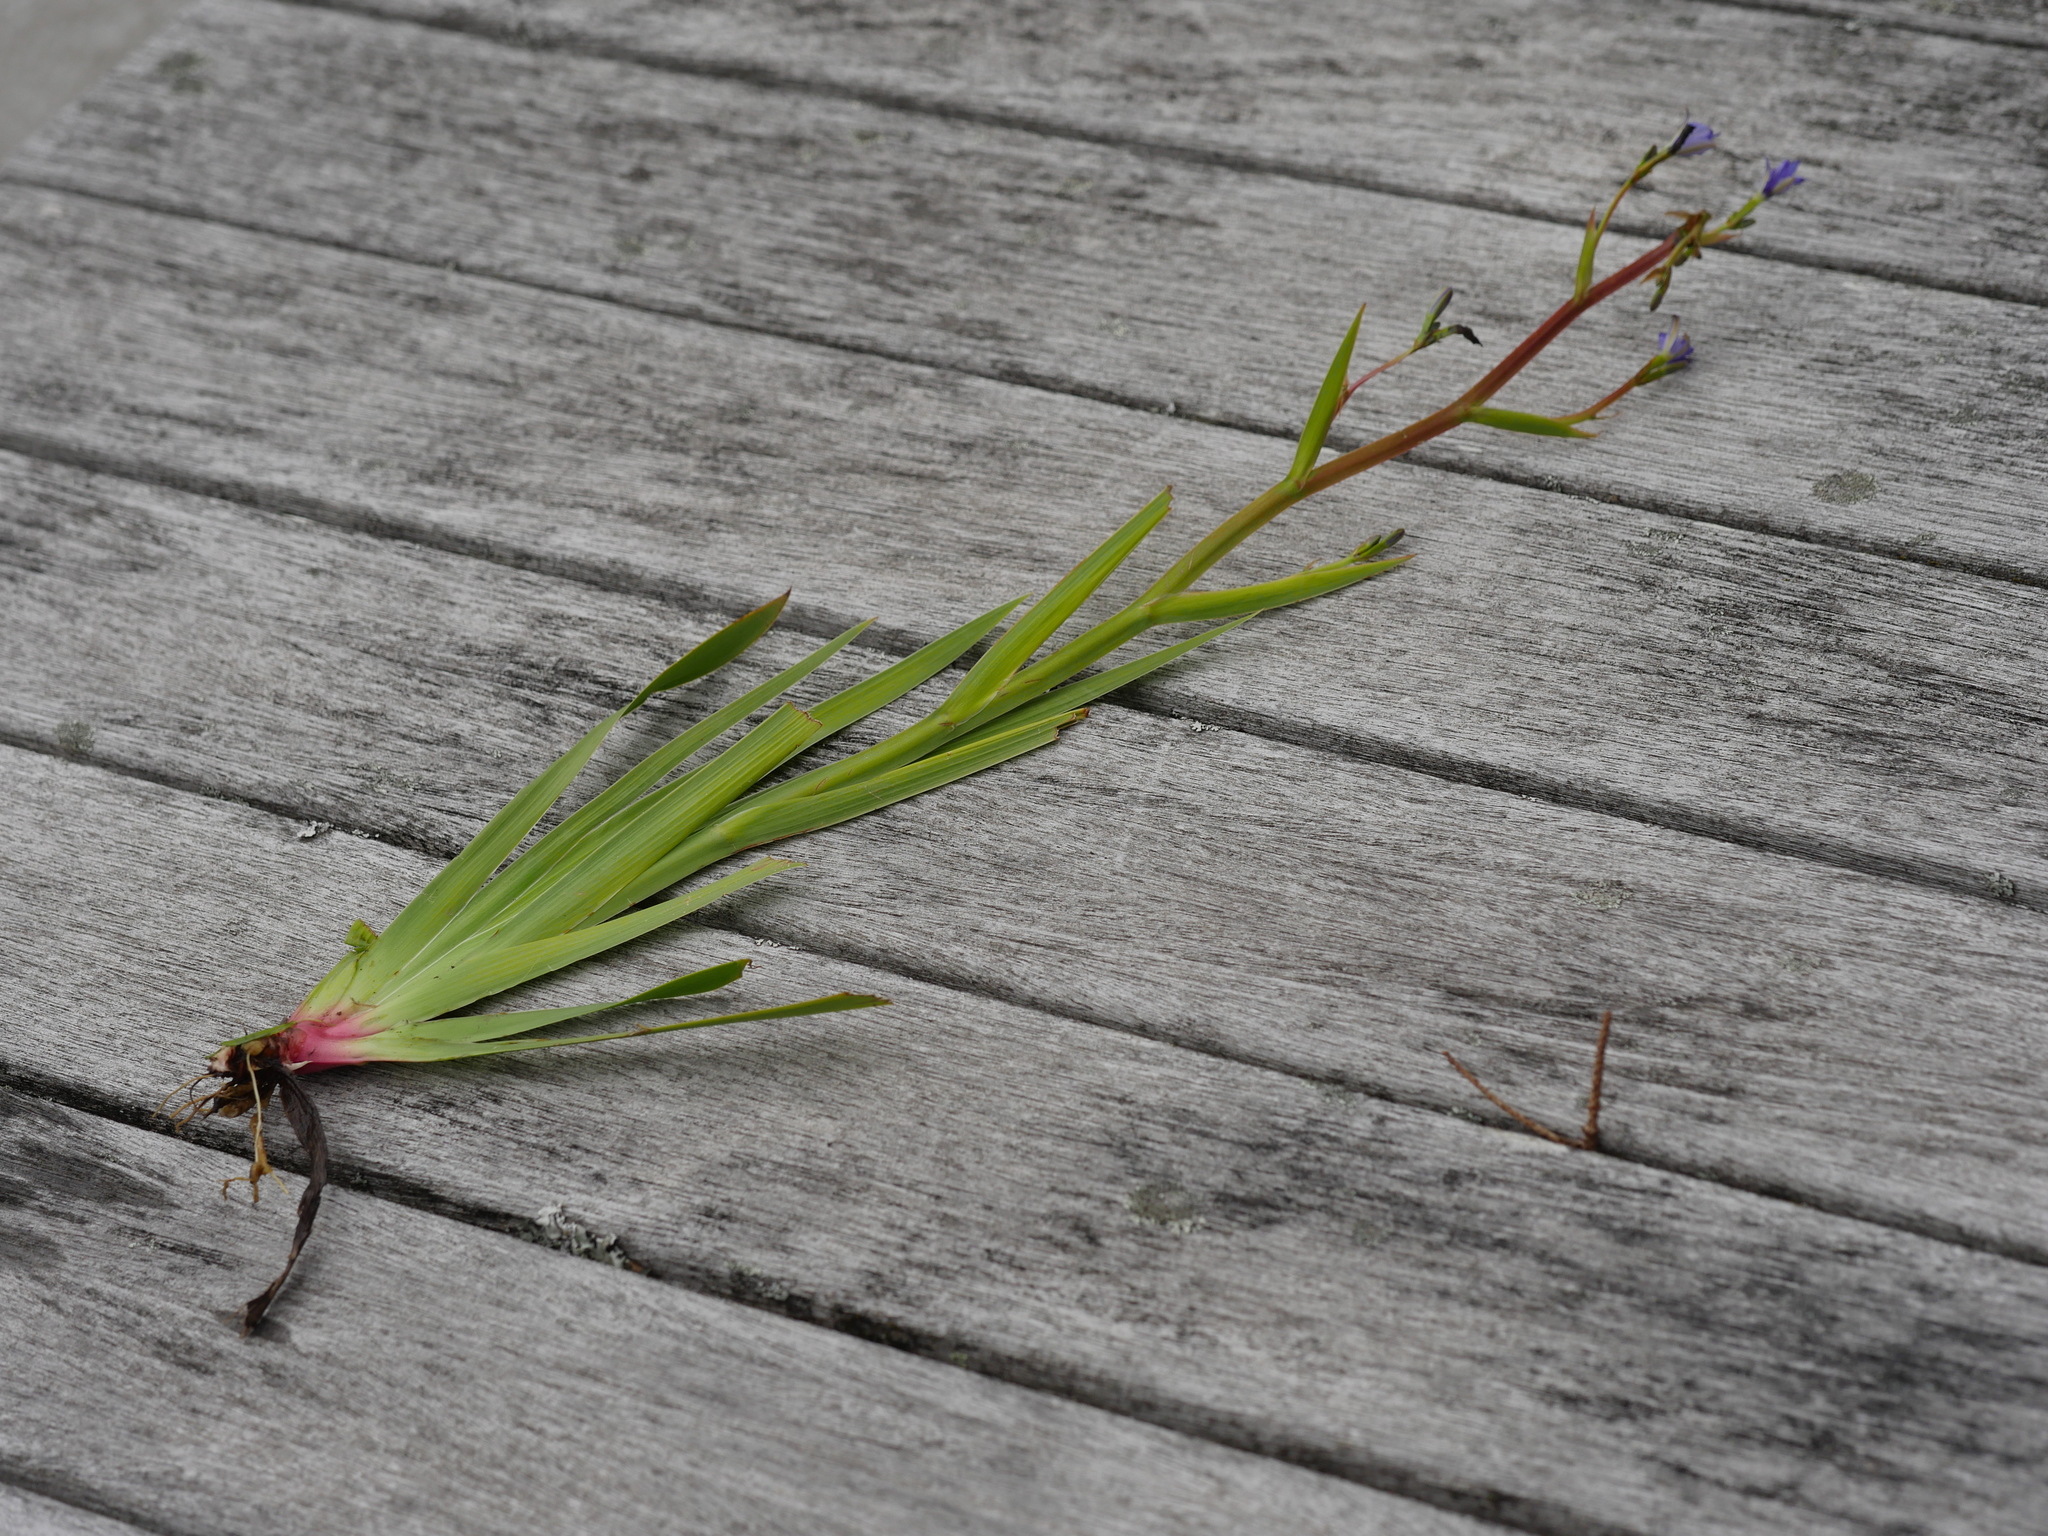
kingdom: Plantae
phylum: Tracheophyta
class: Liliopsida
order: Asparagales
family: Iridaceae
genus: Aristea
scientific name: Aristea ecklonii
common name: Blue corn-lily
